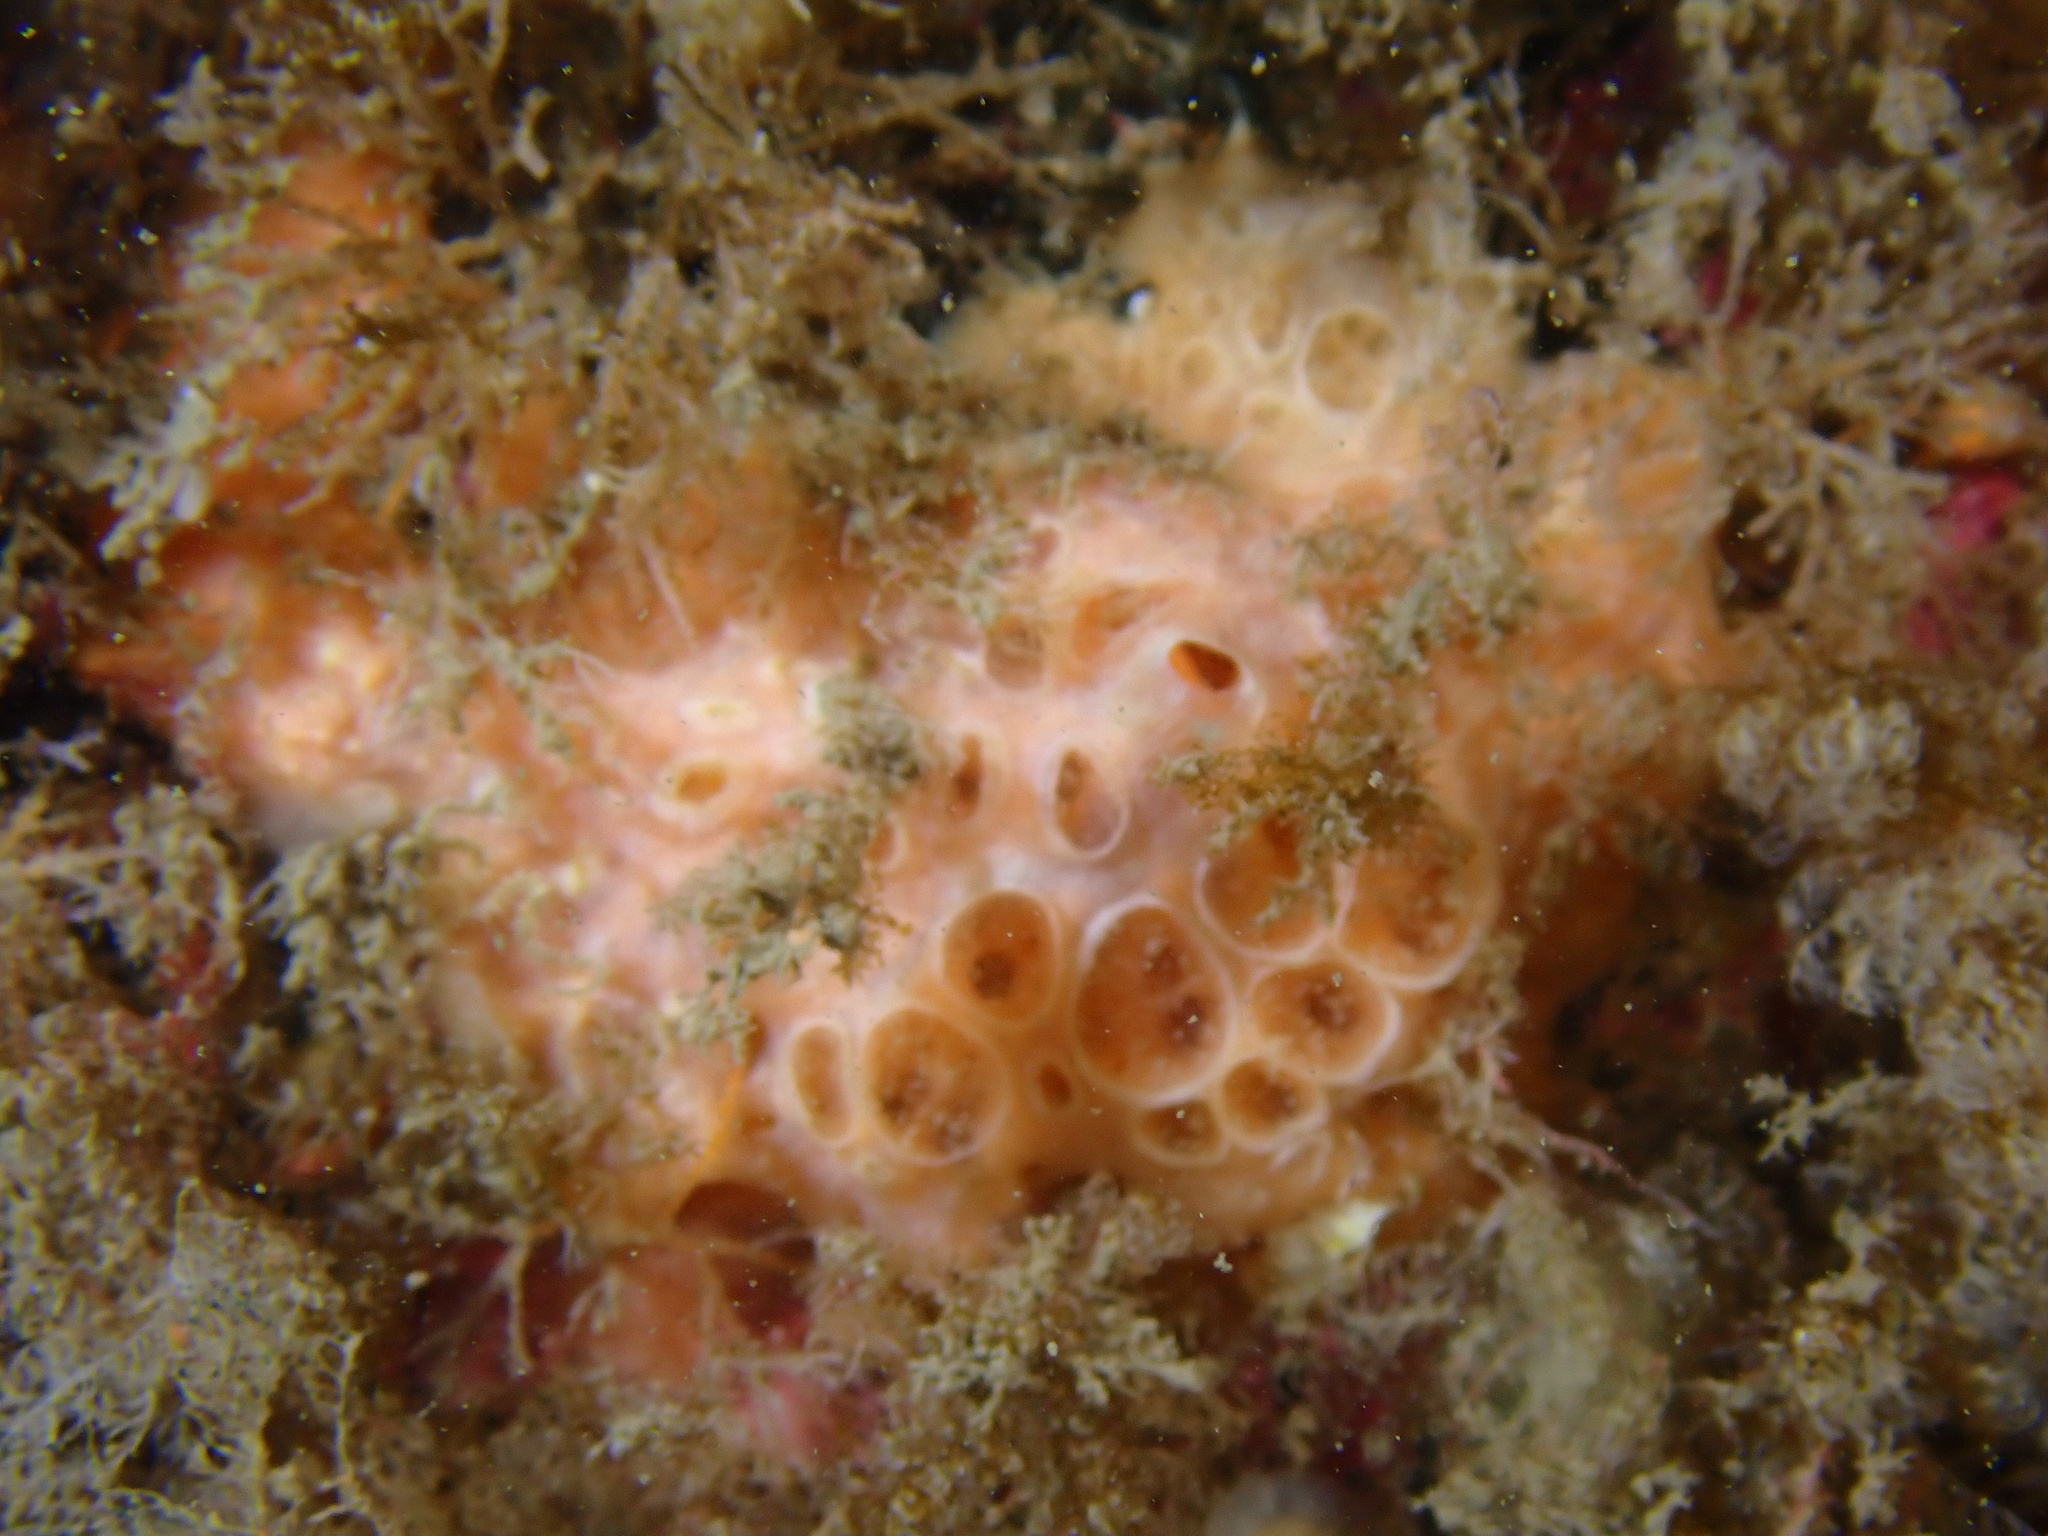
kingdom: Animalia
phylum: Porifera
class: Demospongiae
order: Poecilosclerida
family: Hymedesmiidae
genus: Hemimycale
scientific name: Hemimycale columella
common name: Crater sponge
